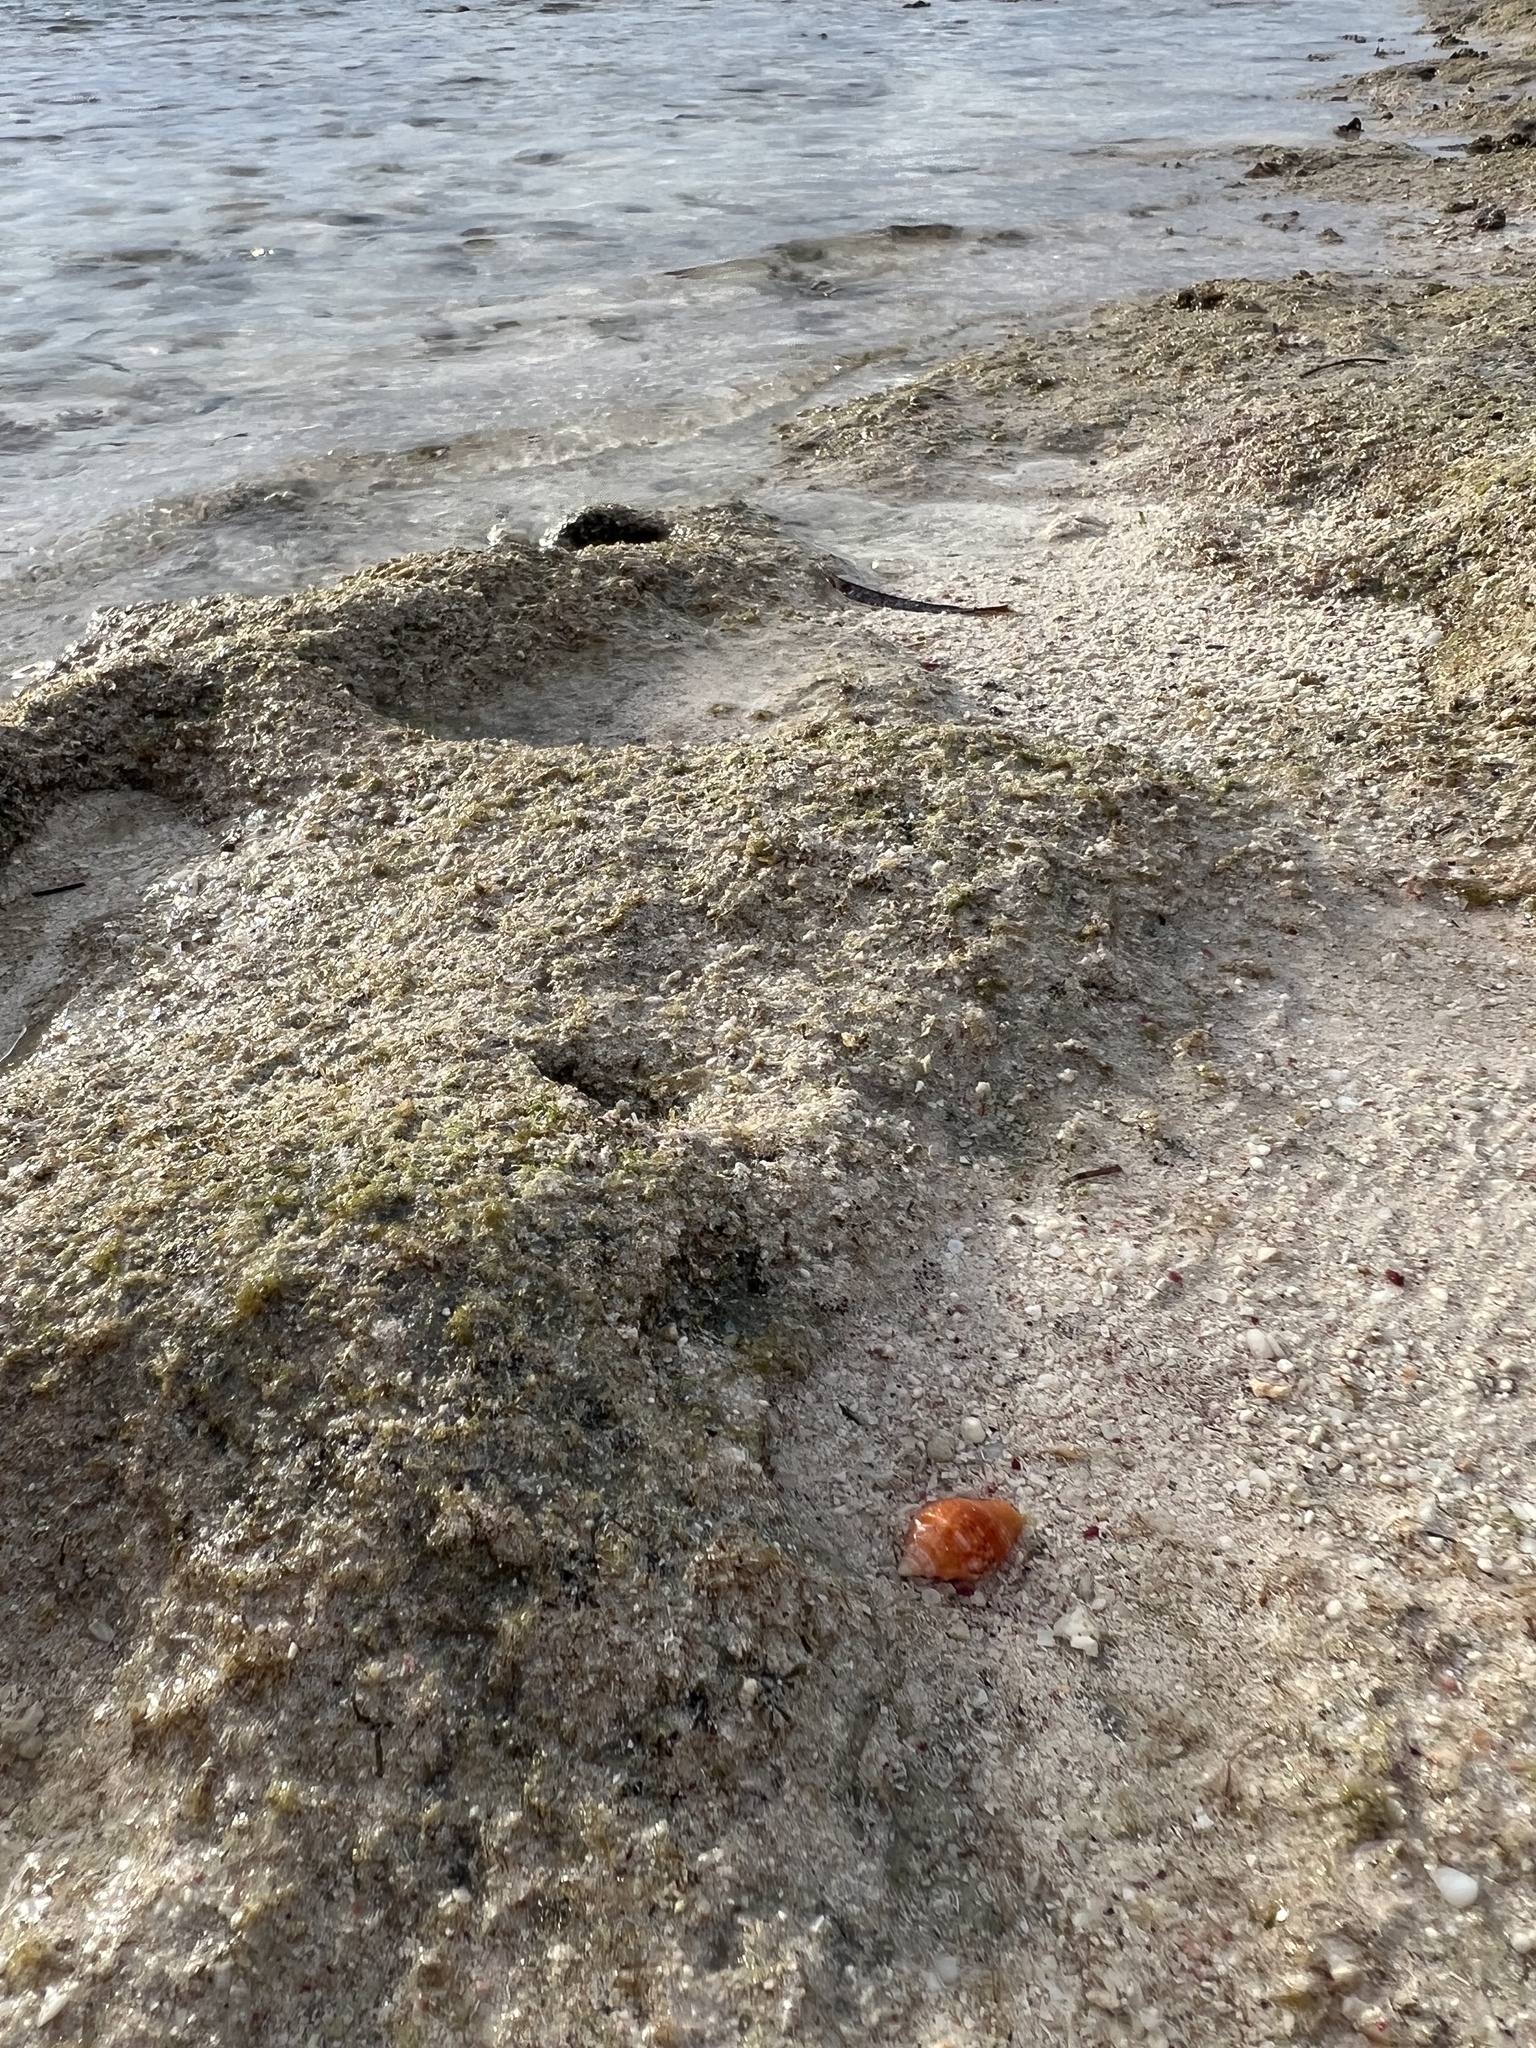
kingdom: Animalia
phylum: Mollusca
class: Gastropoda
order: Neogastropoda
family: Columbellidae
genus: Columbella
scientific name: Columbella mercatoria
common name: West indian dovesnail
